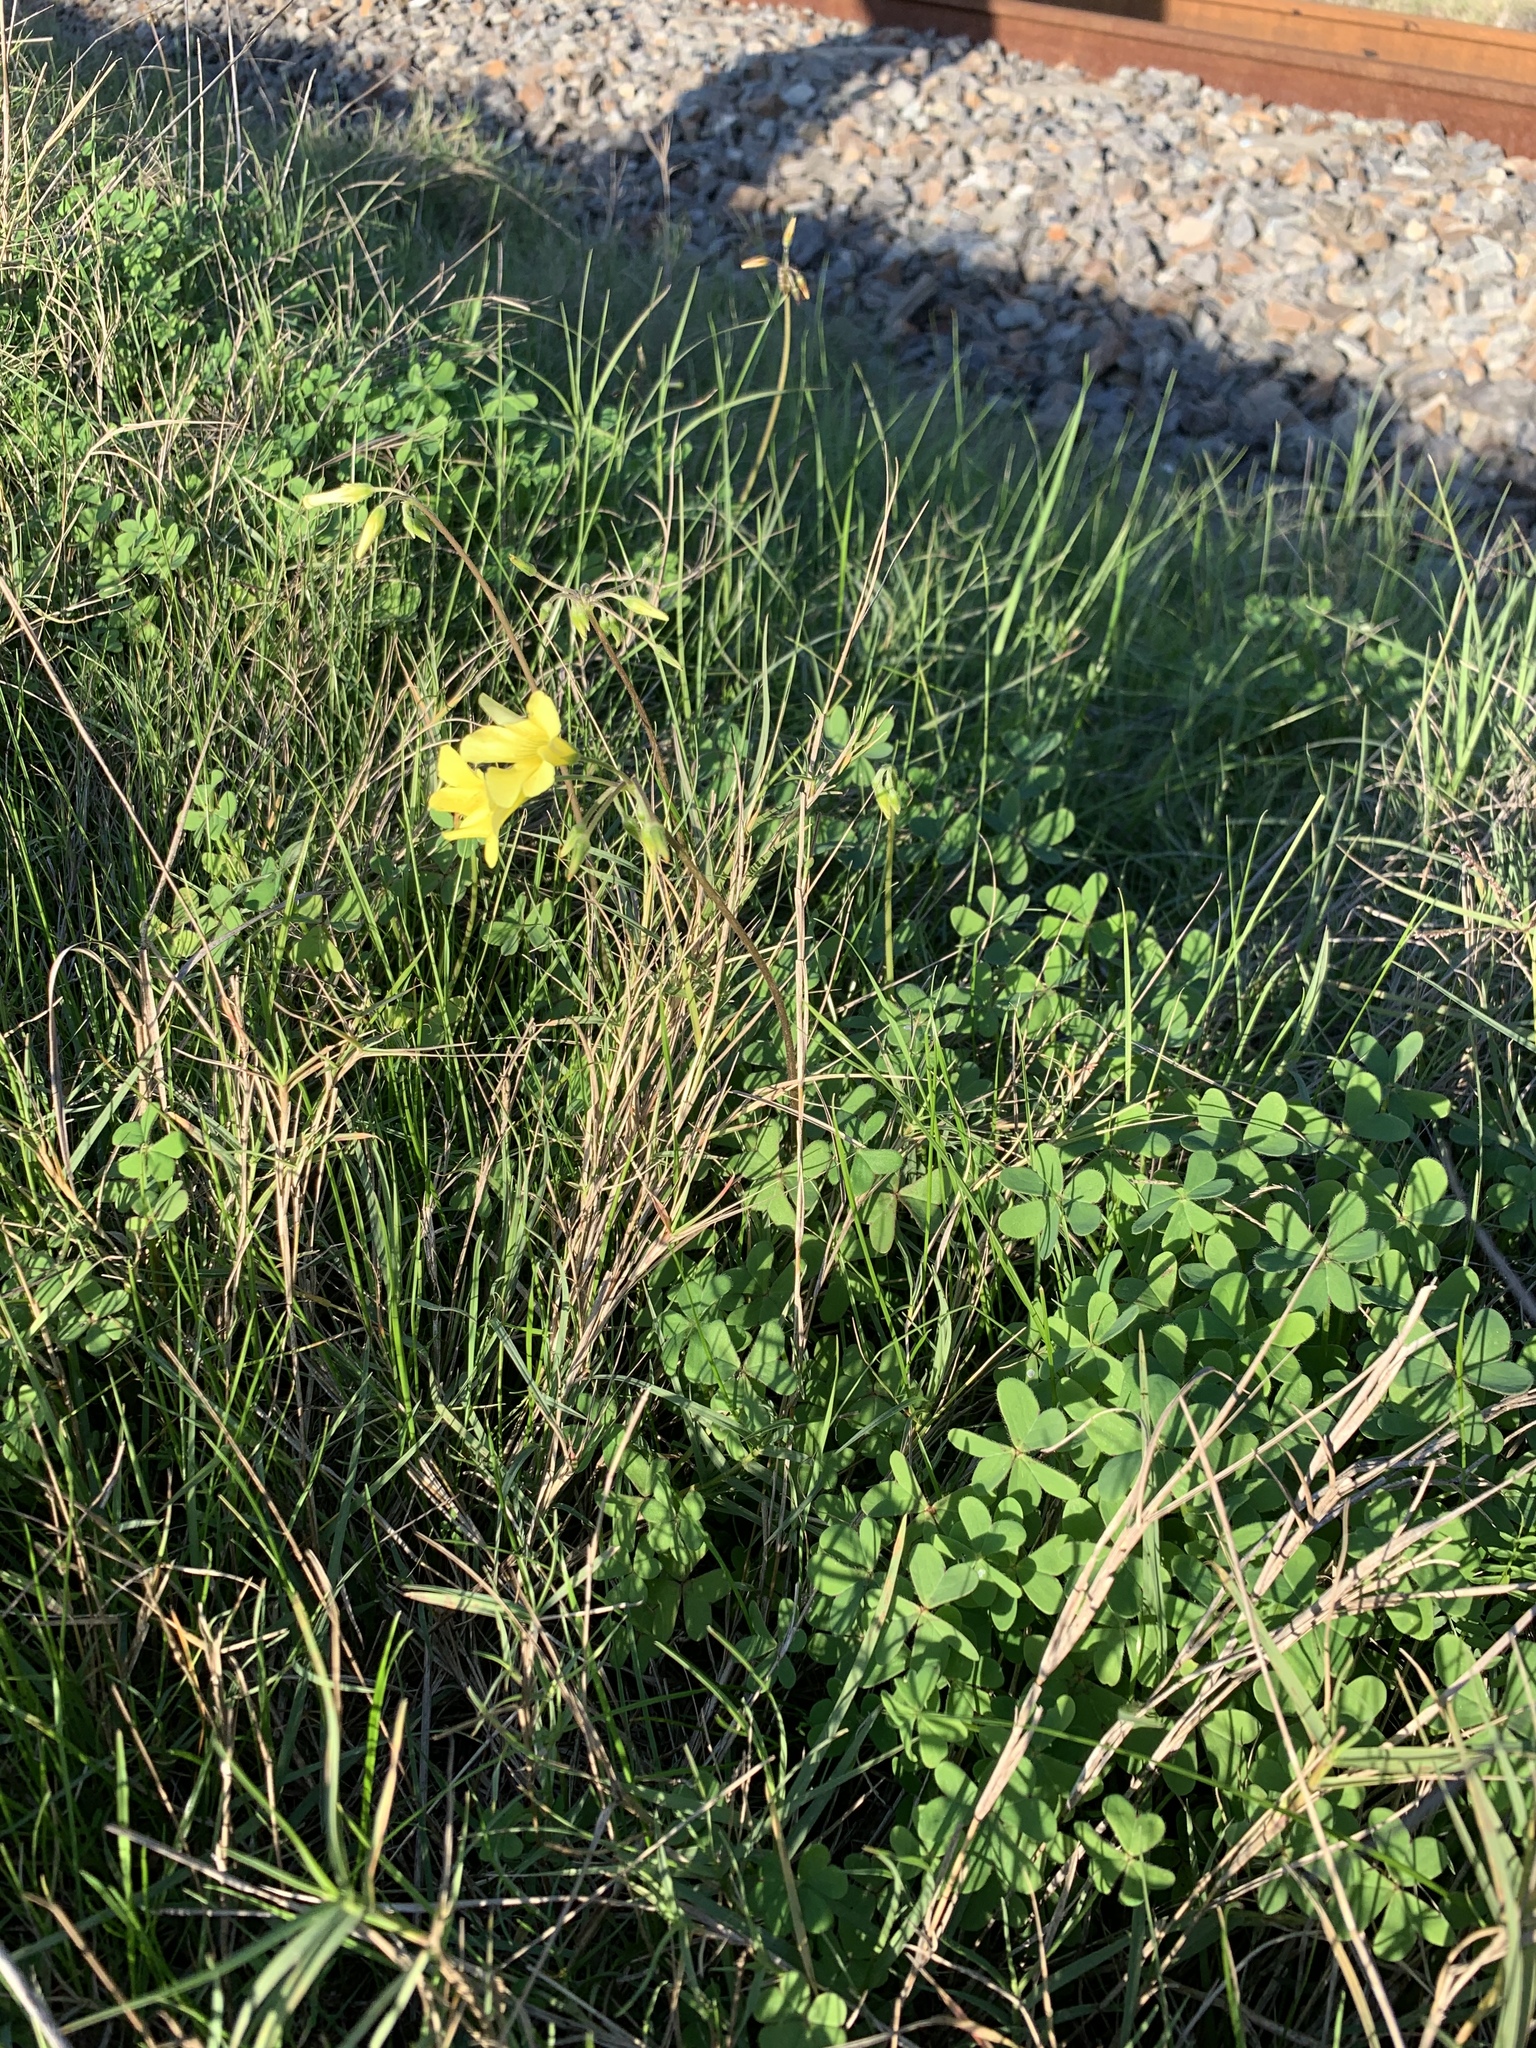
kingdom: Plantae
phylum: Tracheophyta
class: Magnoliopsida
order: Oxalidales
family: Oxalidaceae
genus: Oxalis
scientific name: Oxalis pes-caprae
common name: Bermuda-buttercup
